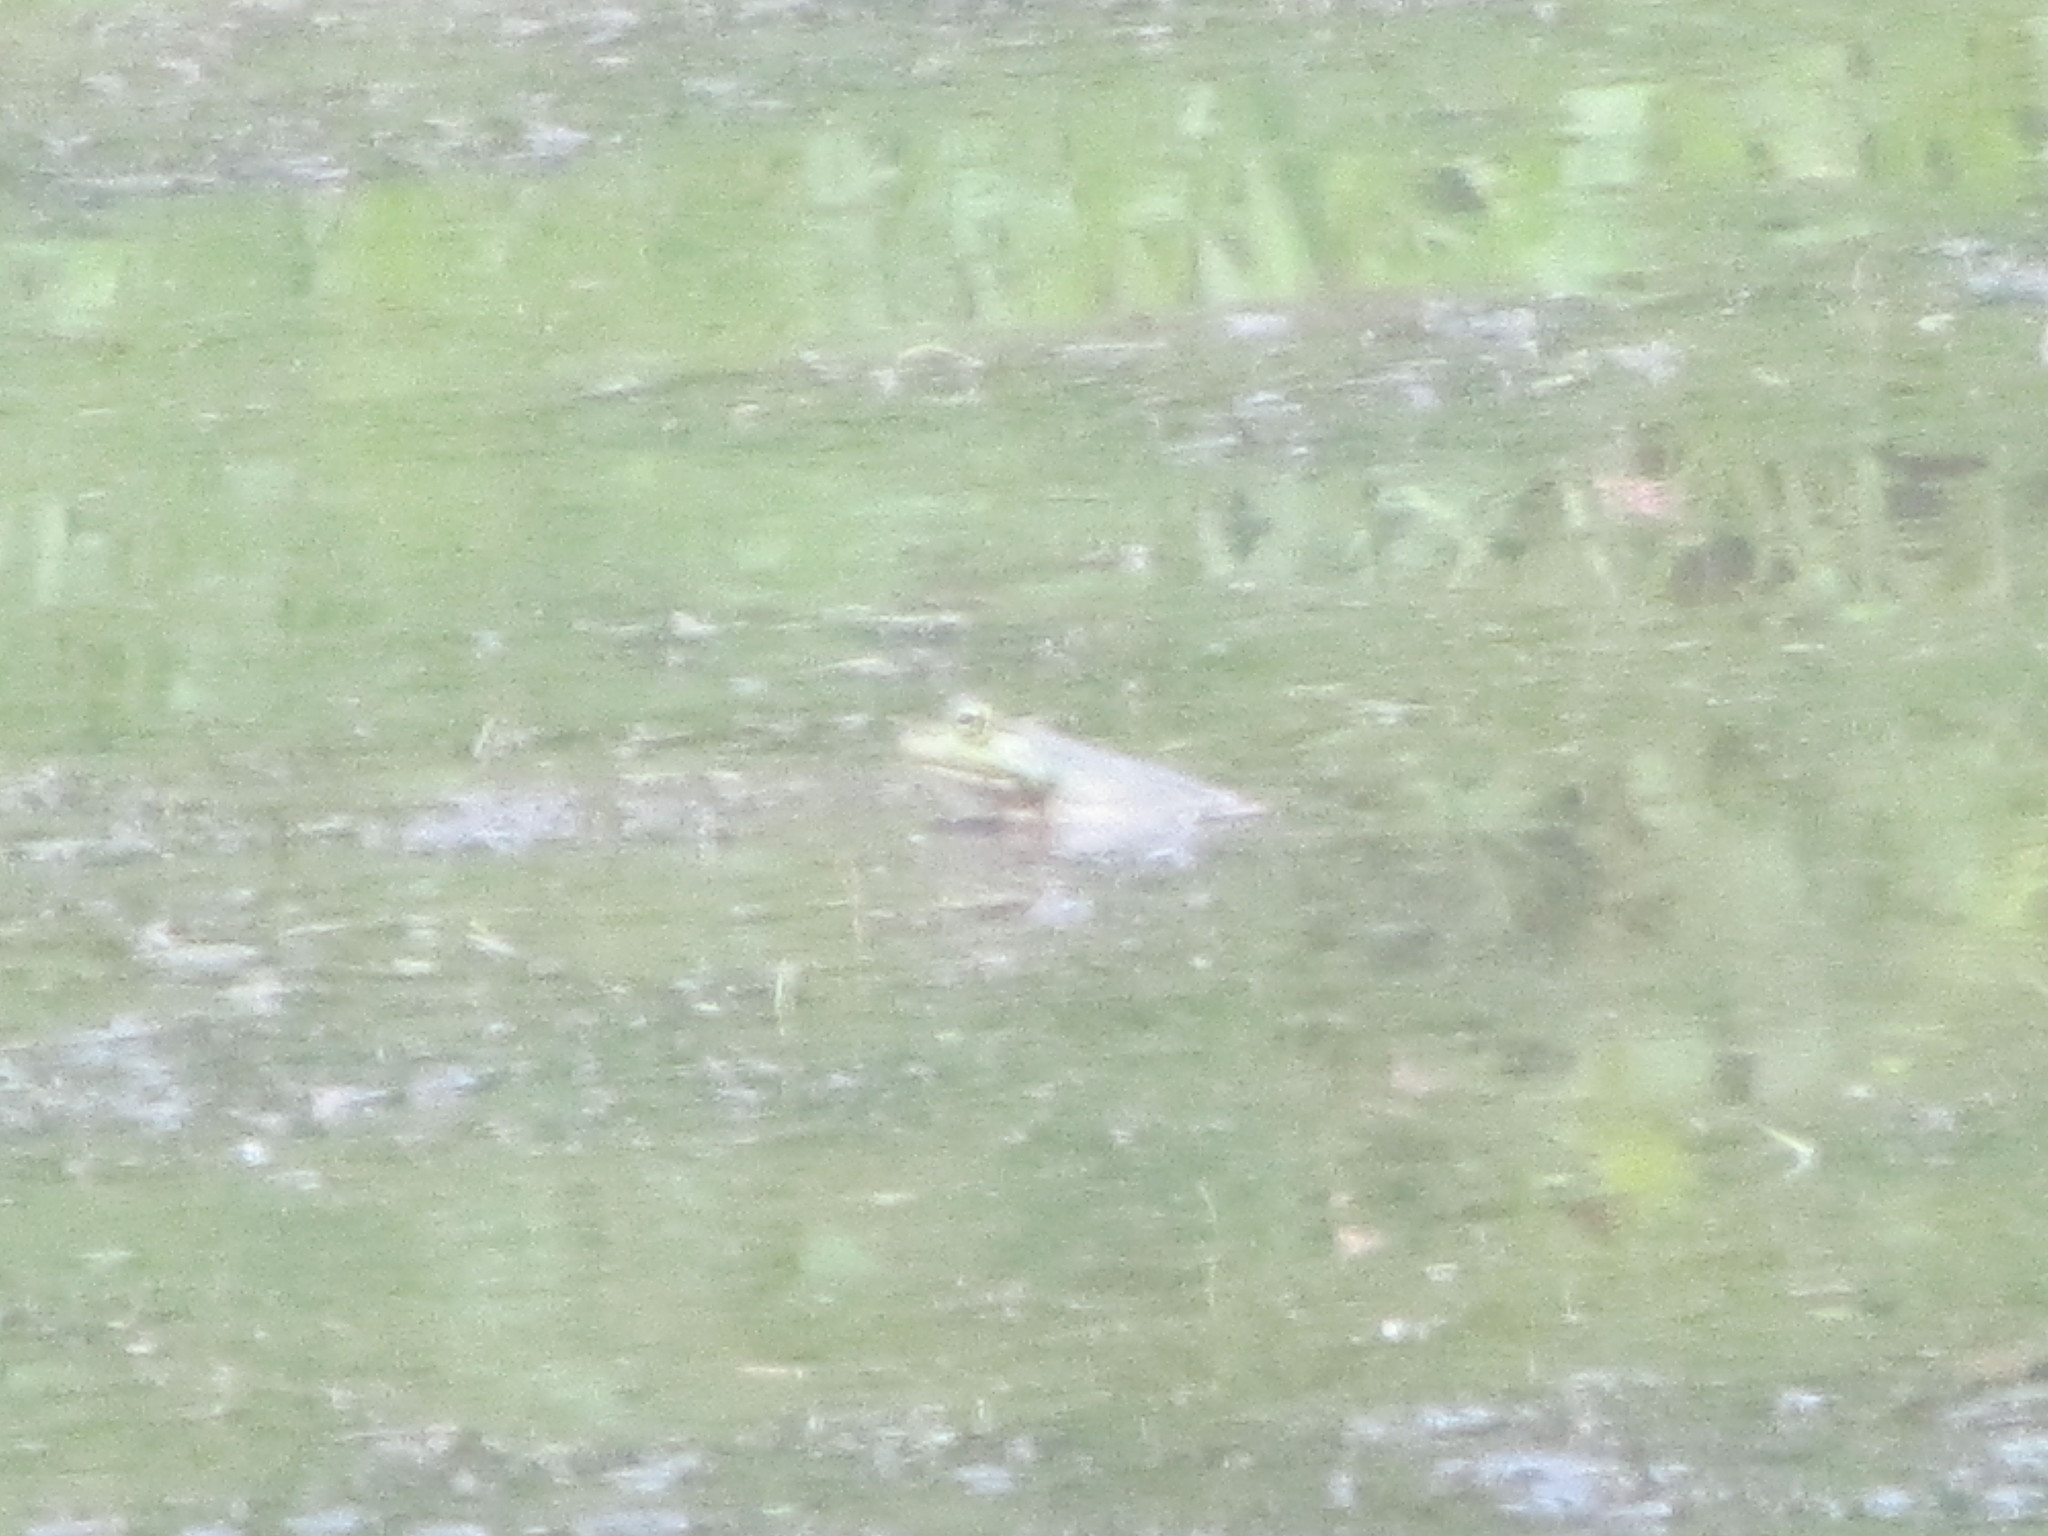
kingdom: Animalia
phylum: Chordata
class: Amphibia
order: Anura
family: Ranidae
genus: Lithobates
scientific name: Lithobates catesbeianus
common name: American bullfrog
